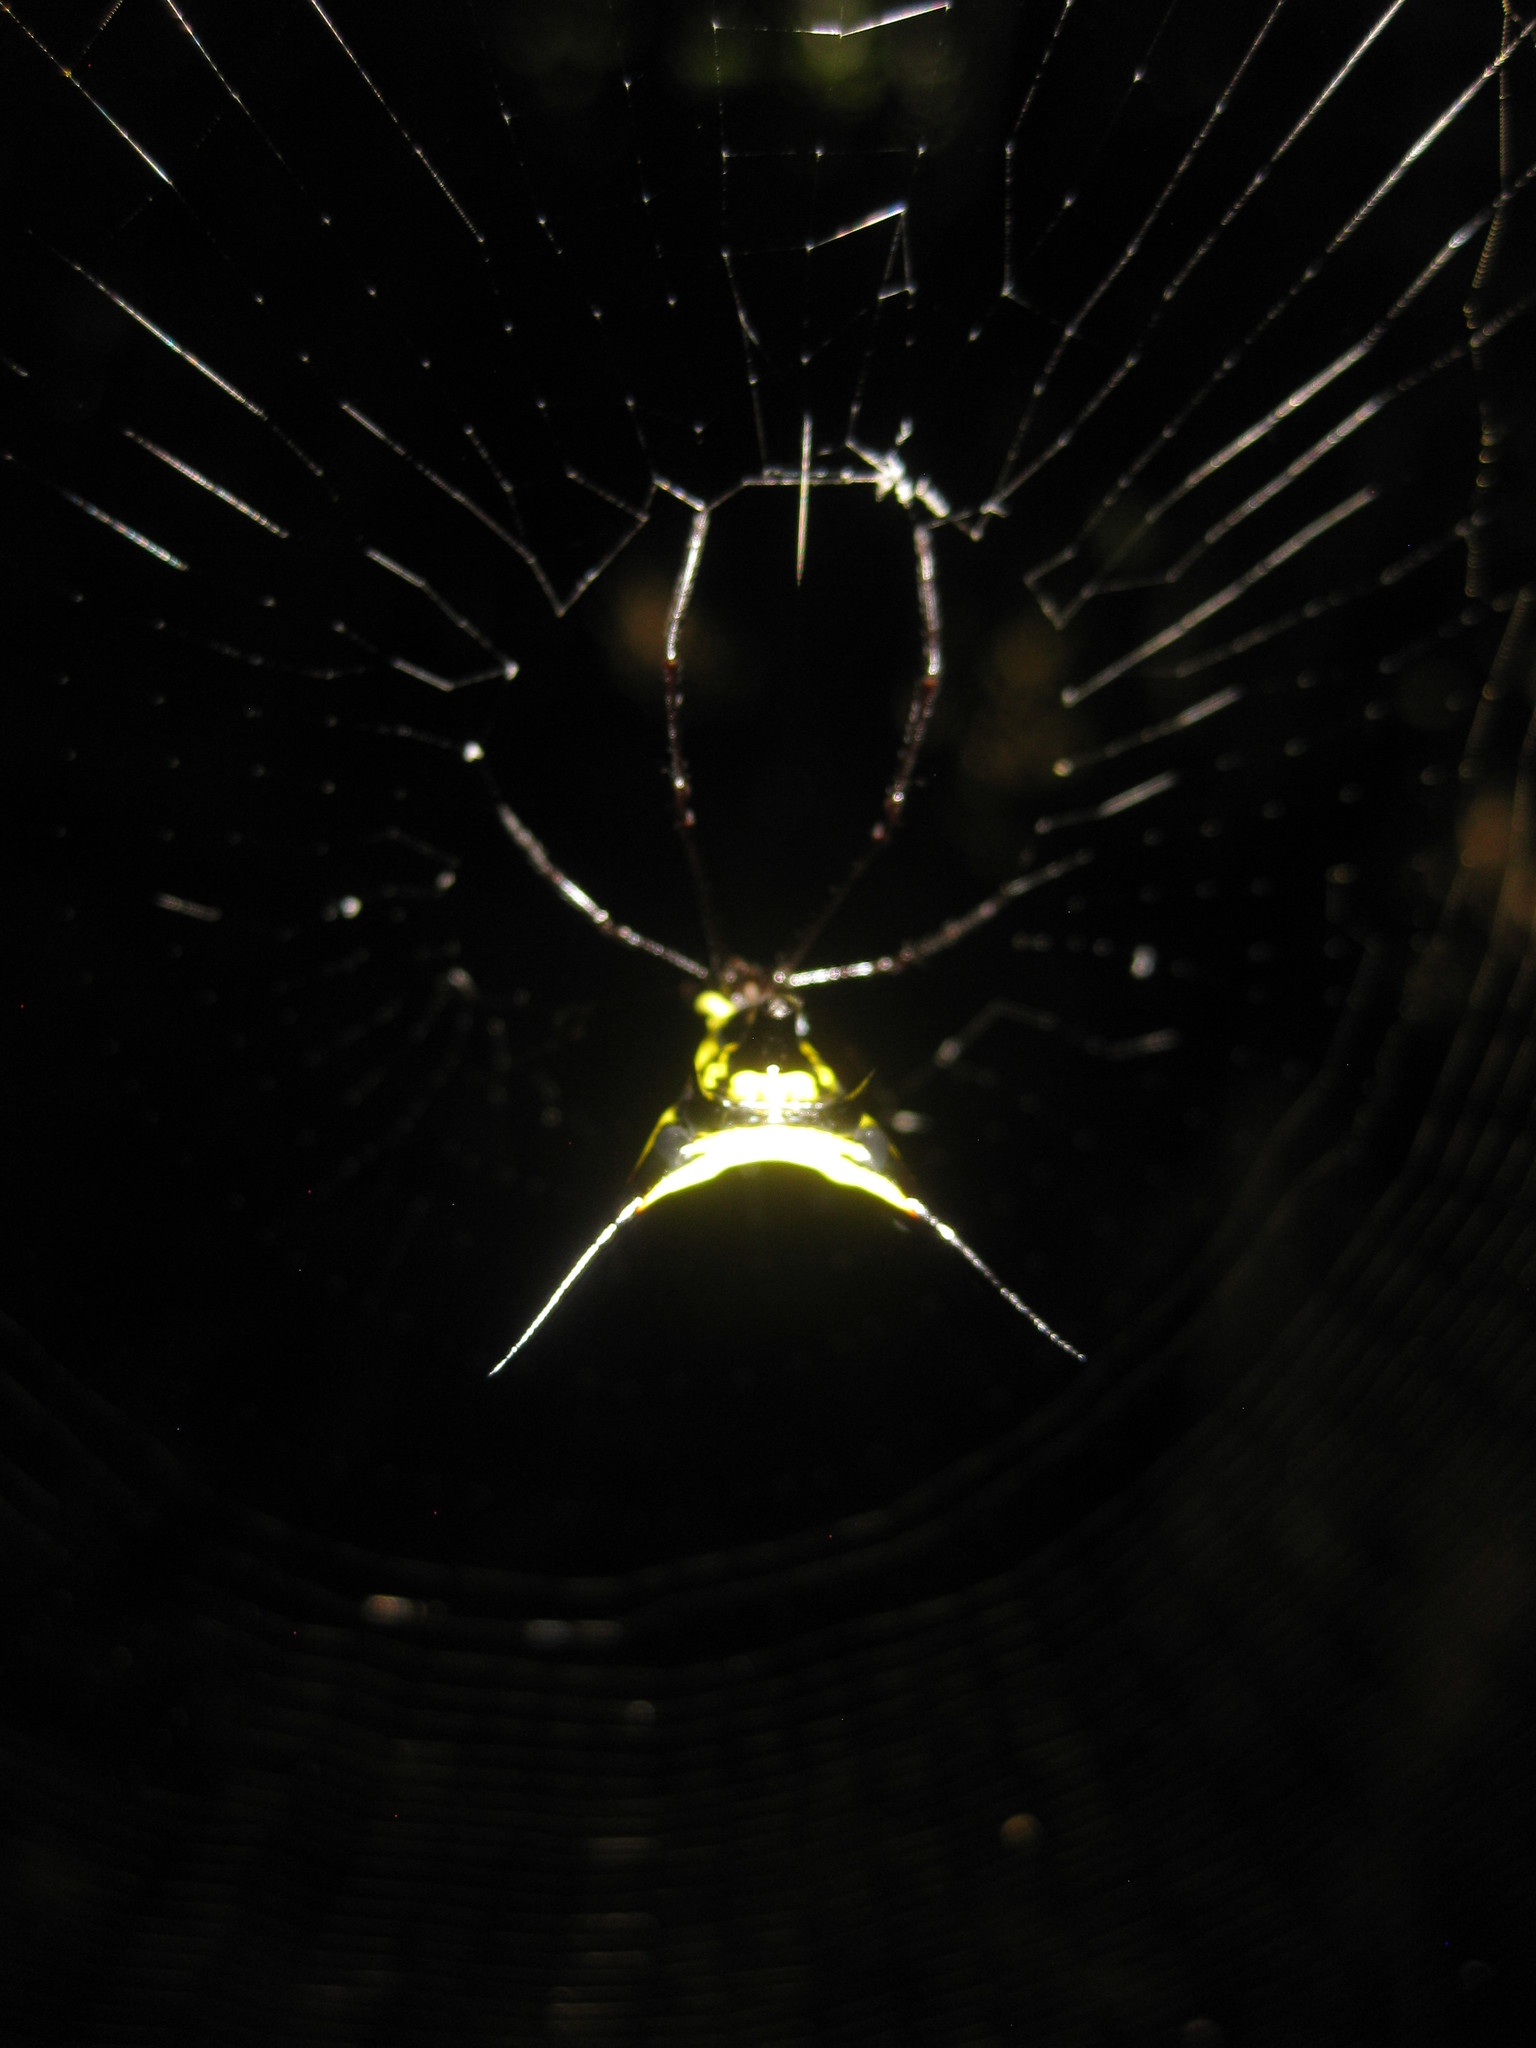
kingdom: Animalia
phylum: Arthropoda
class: Arachnida
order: Araneae
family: Araneidae
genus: Micrathena
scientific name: Micrathena schreibersi
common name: Orb weavers
